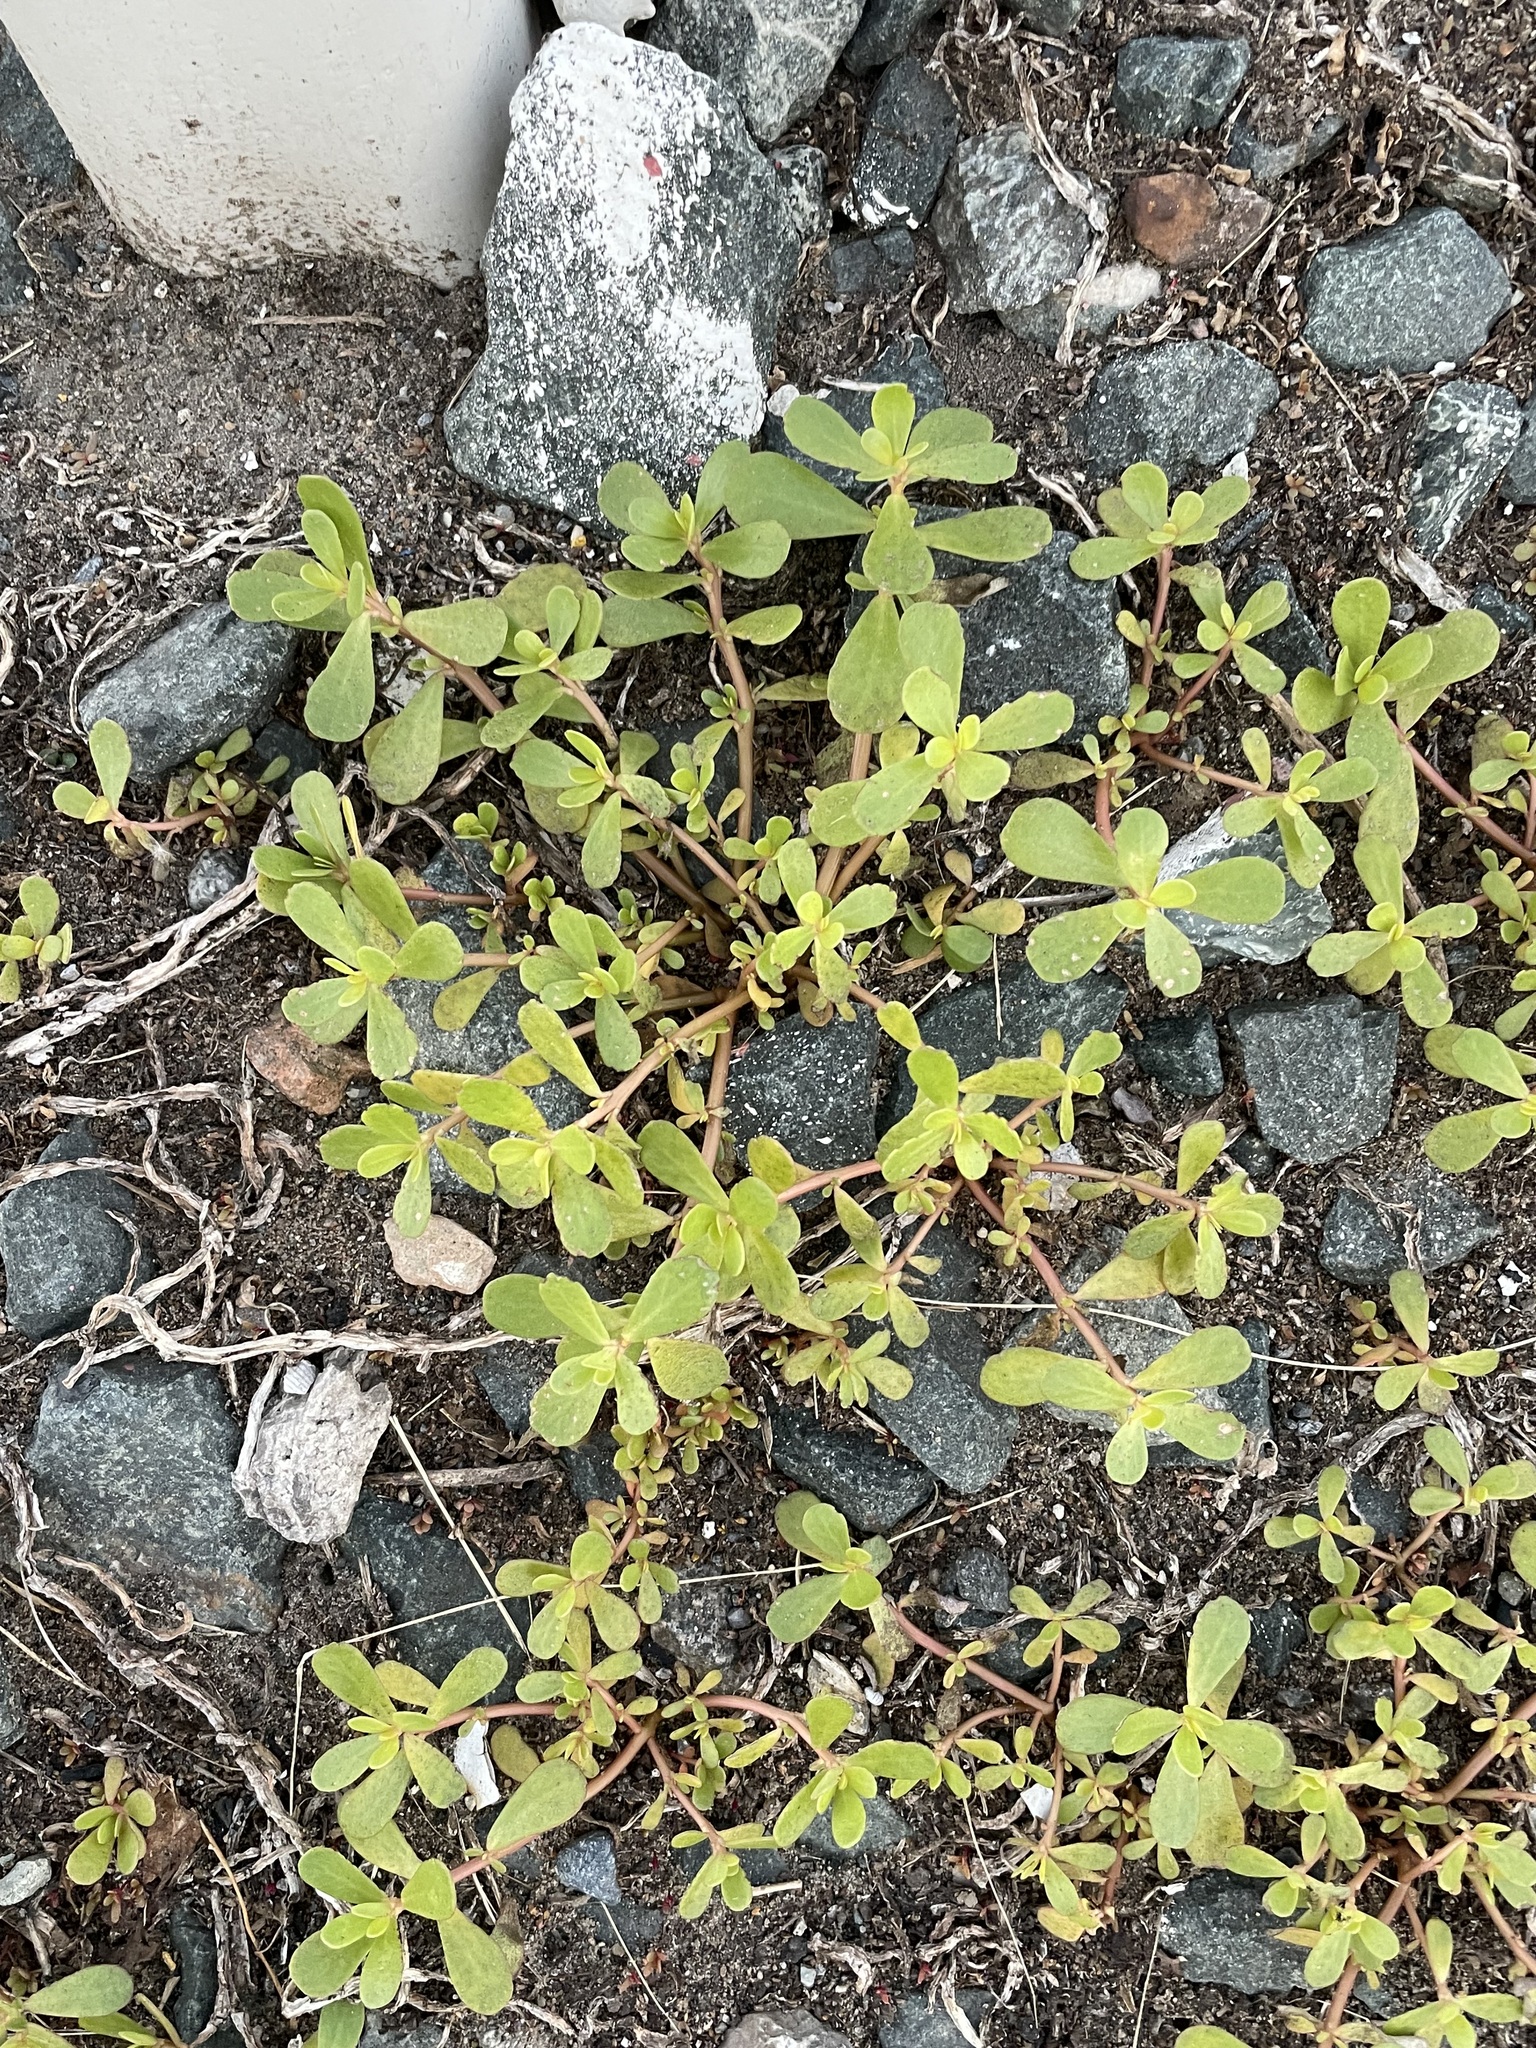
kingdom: Plantae
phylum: Tracheophyta
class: Magnoliopsida
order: Caryophyllales
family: Portulacaceae
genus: Portulaca
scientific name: Portulaca oleracea
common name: Common purslane
